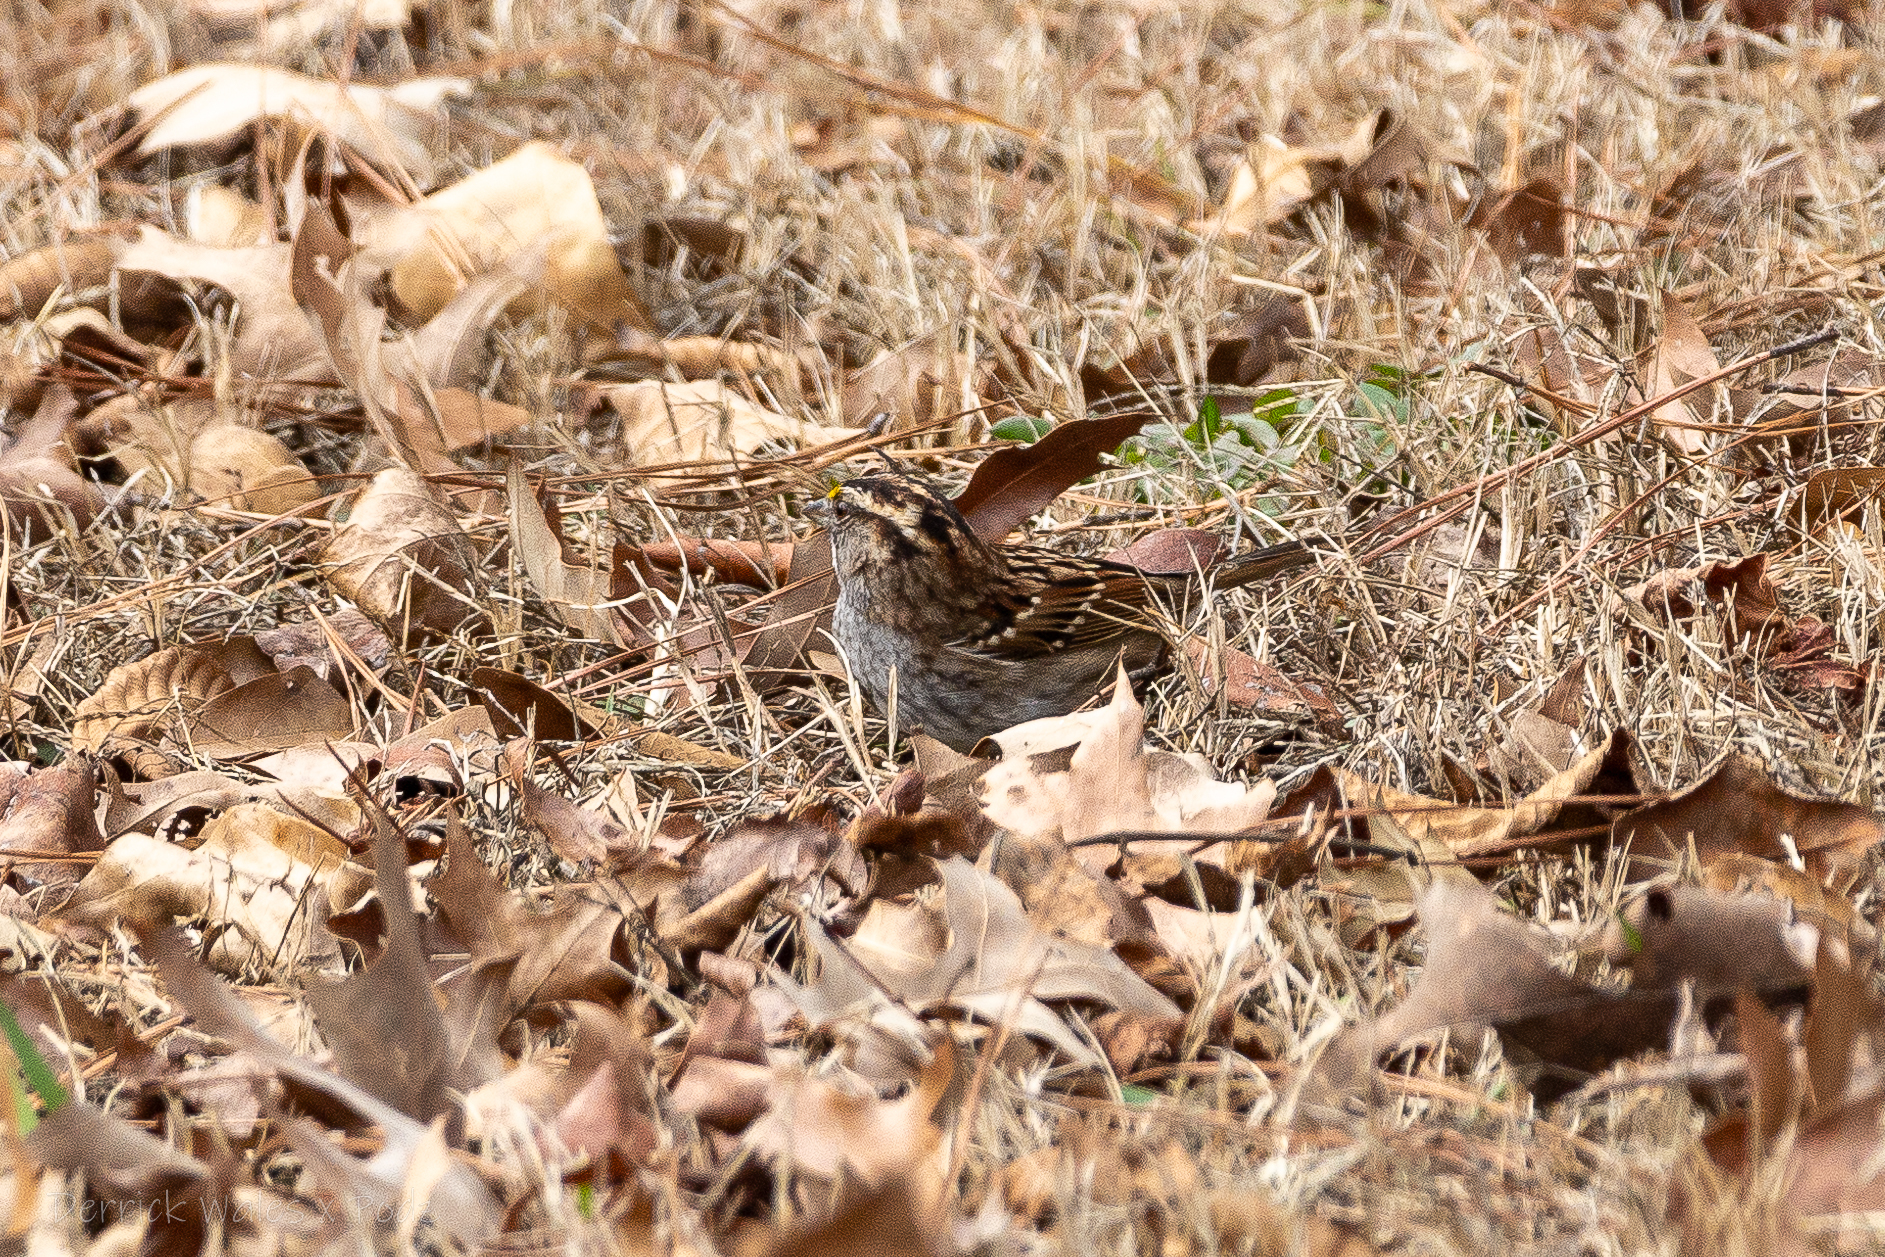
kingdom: Animalia
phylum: Chordata
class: Aves
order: Passeriformes
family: Passerellidae
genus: Zonotrichia
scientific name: Zonotrichia albicollis
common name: White-throated sparrow
